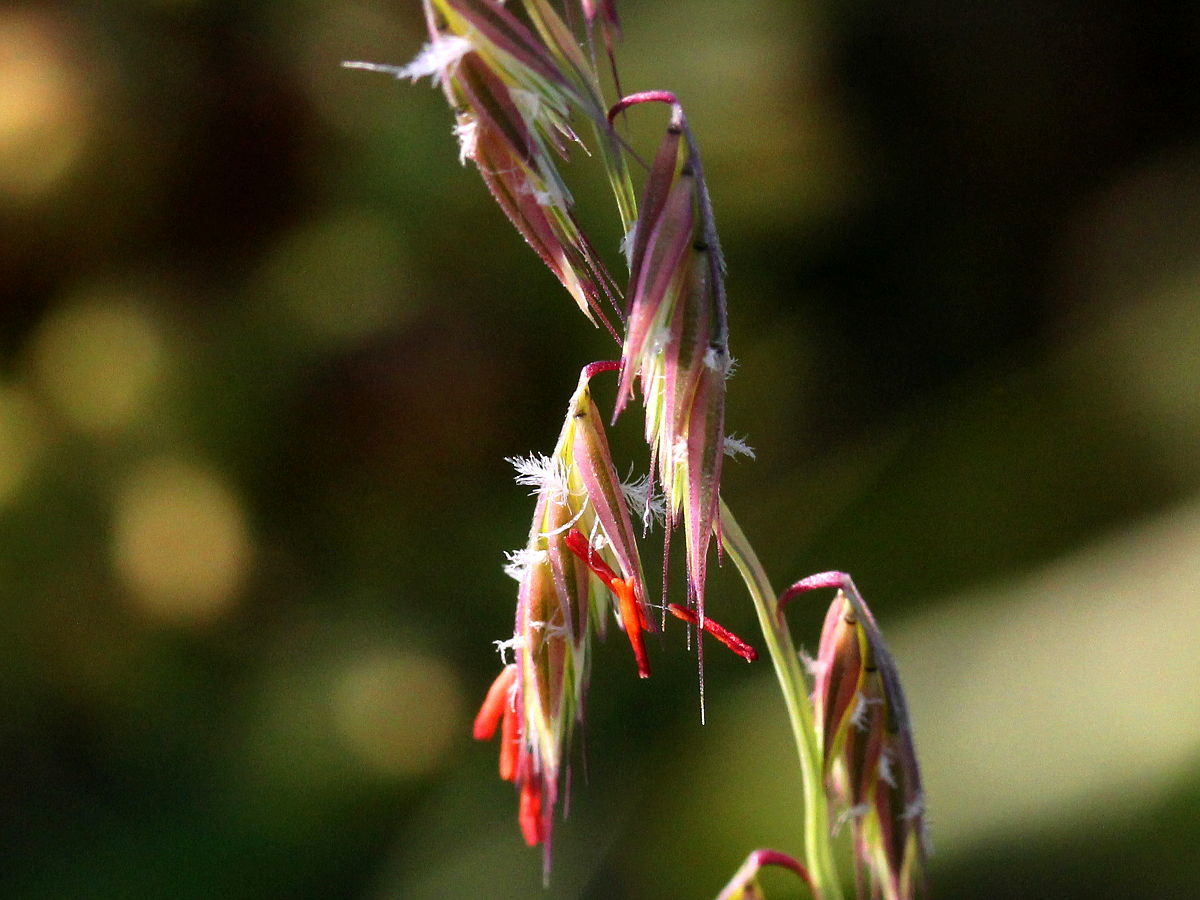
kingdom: Plantae
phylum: Tracheophyta
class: Liliopsida
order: Poales
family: Poaceae
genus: Bouteloua
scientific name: Bouteloua curtipendula
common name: Side-oats grama
